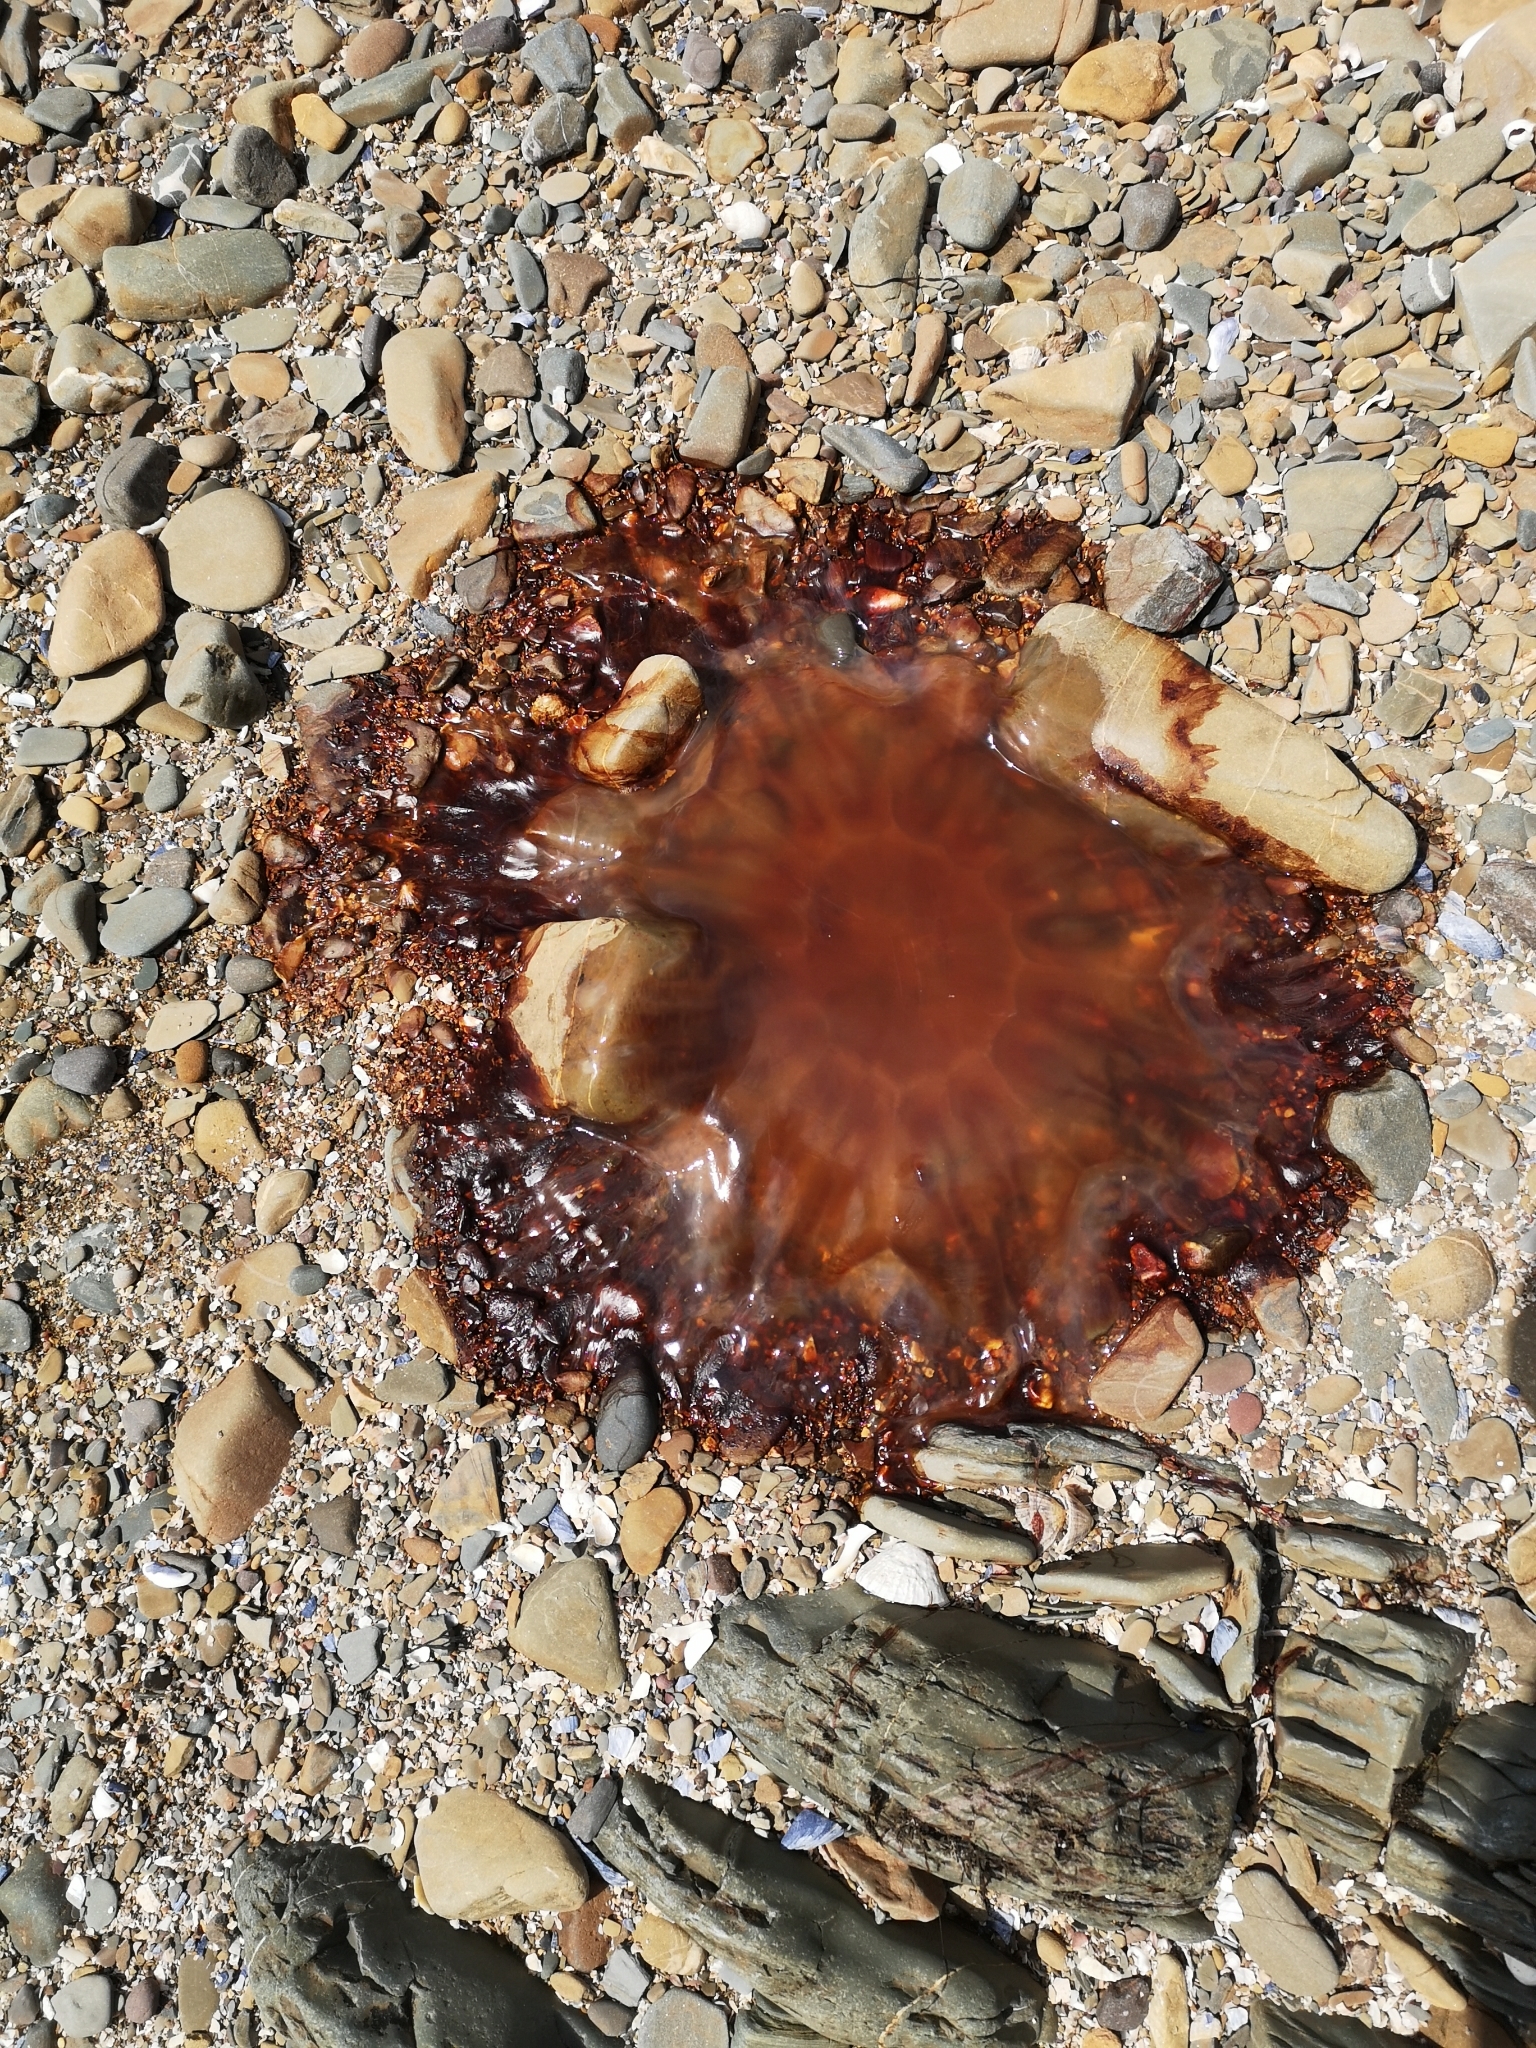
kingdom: Animalia
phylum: Cnidaria
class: Scyphozoa
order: Semaeostomeae
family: Cyaneidae
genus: Cyanea
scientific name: Cyanea capillata
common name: Lion's mane jellyfish
